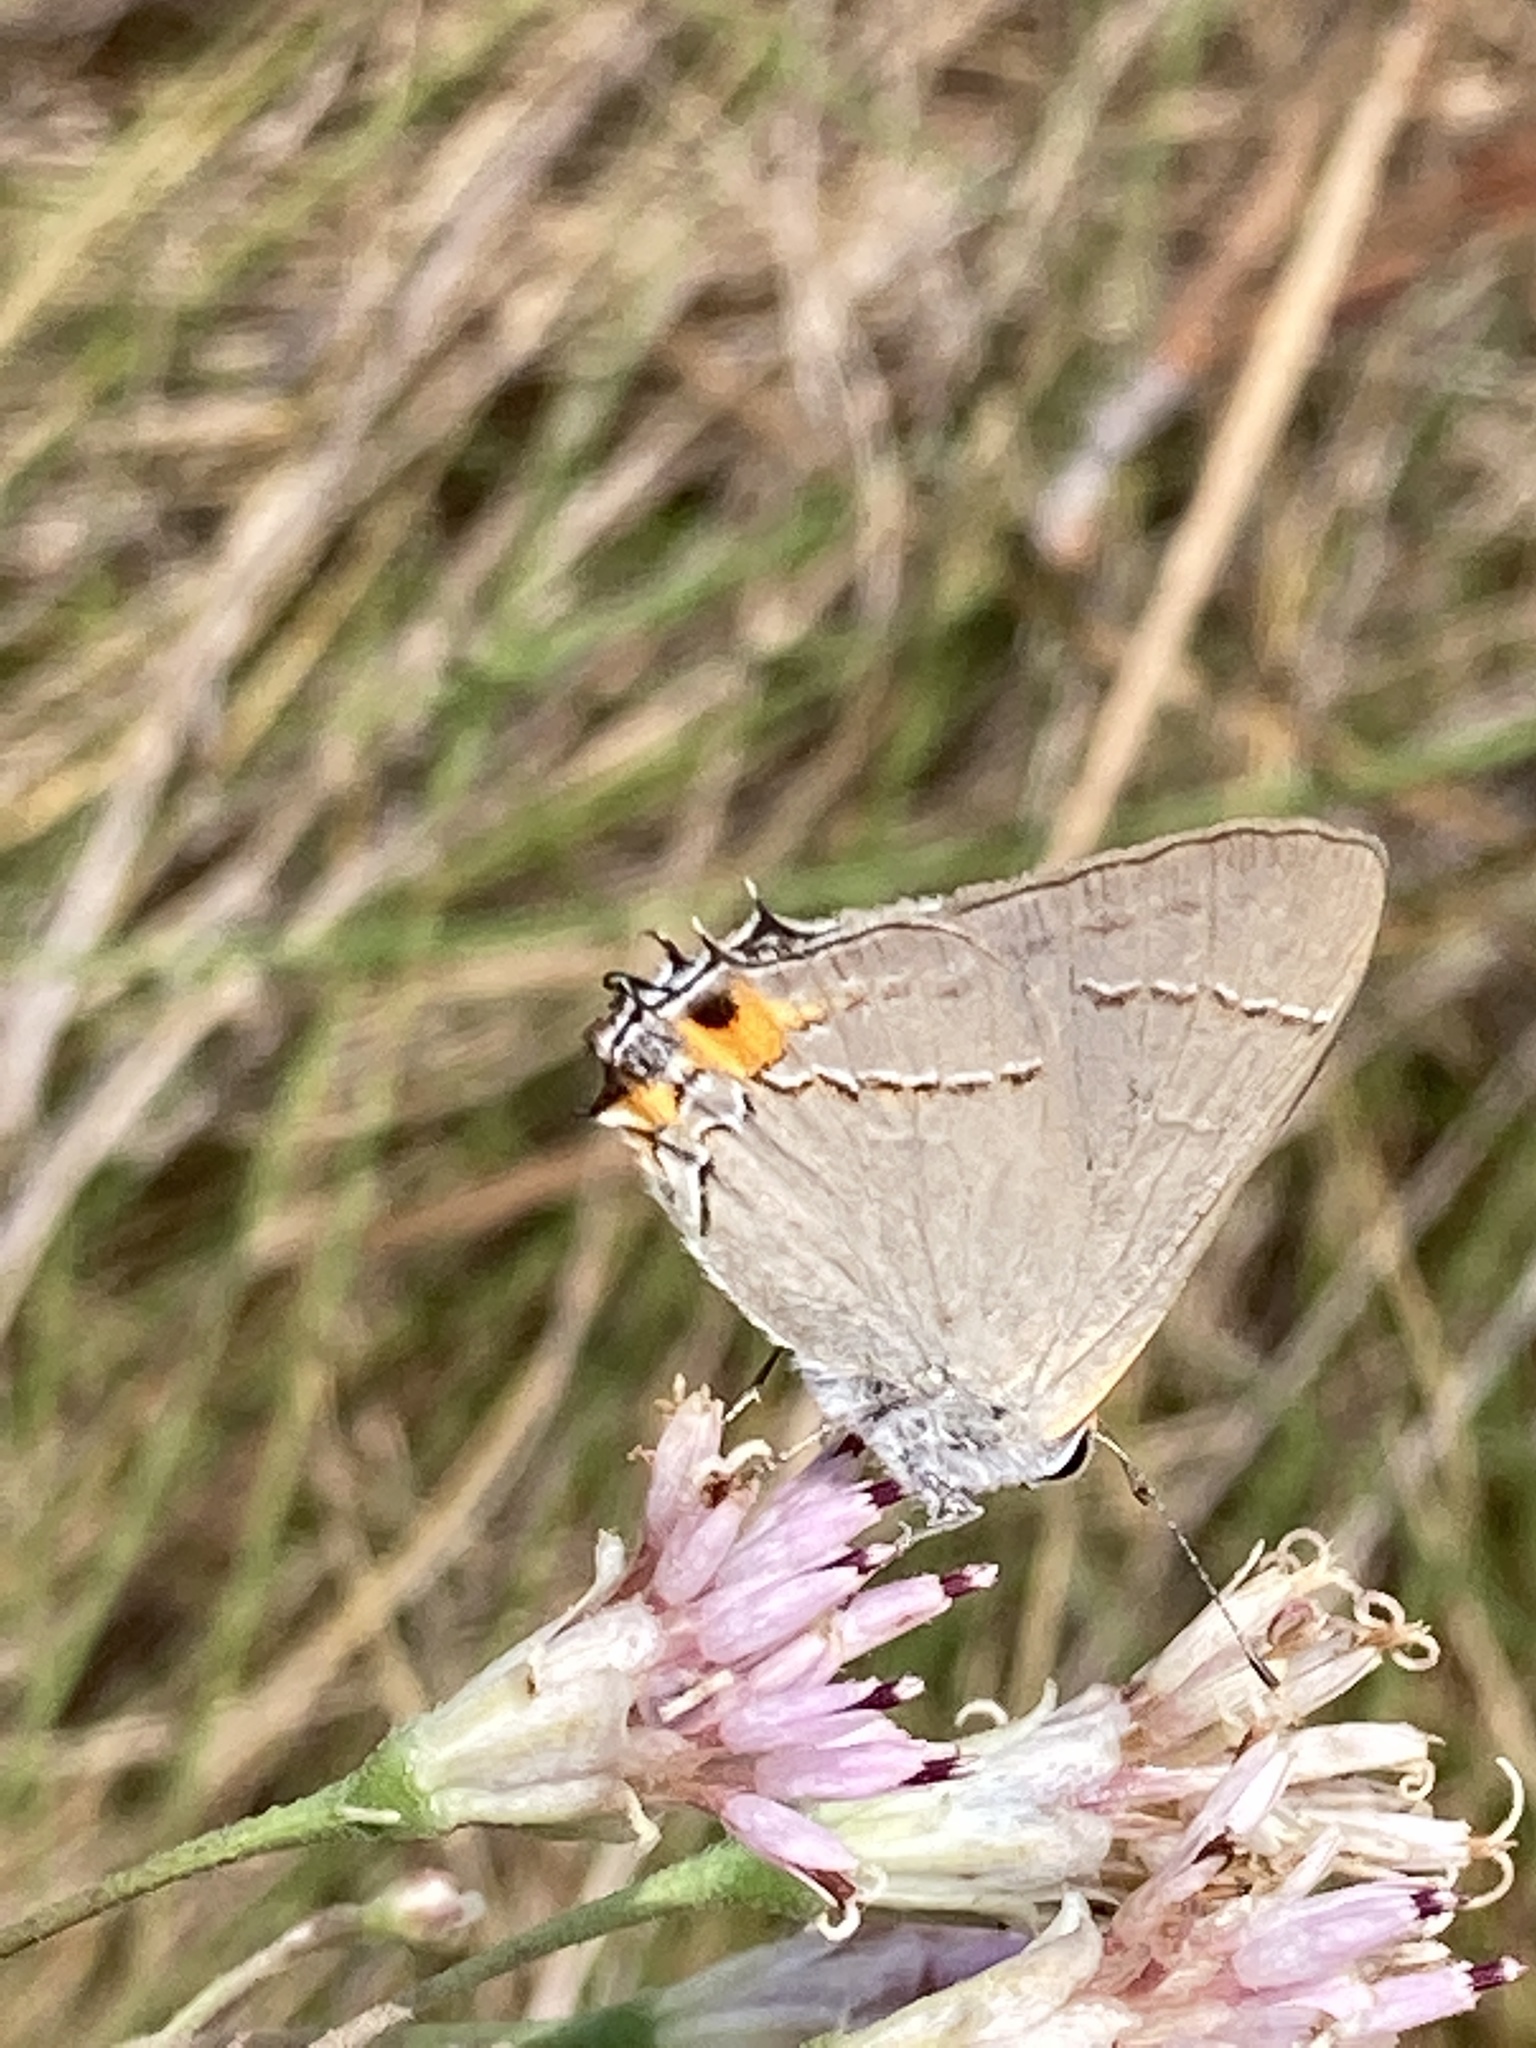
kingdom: Animalia
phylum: Arthropoda
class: Insecta
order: Lepidoptera
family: Lycaenidae
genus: Strymon
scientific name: Strymon melinus
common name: Gray hairstreak
